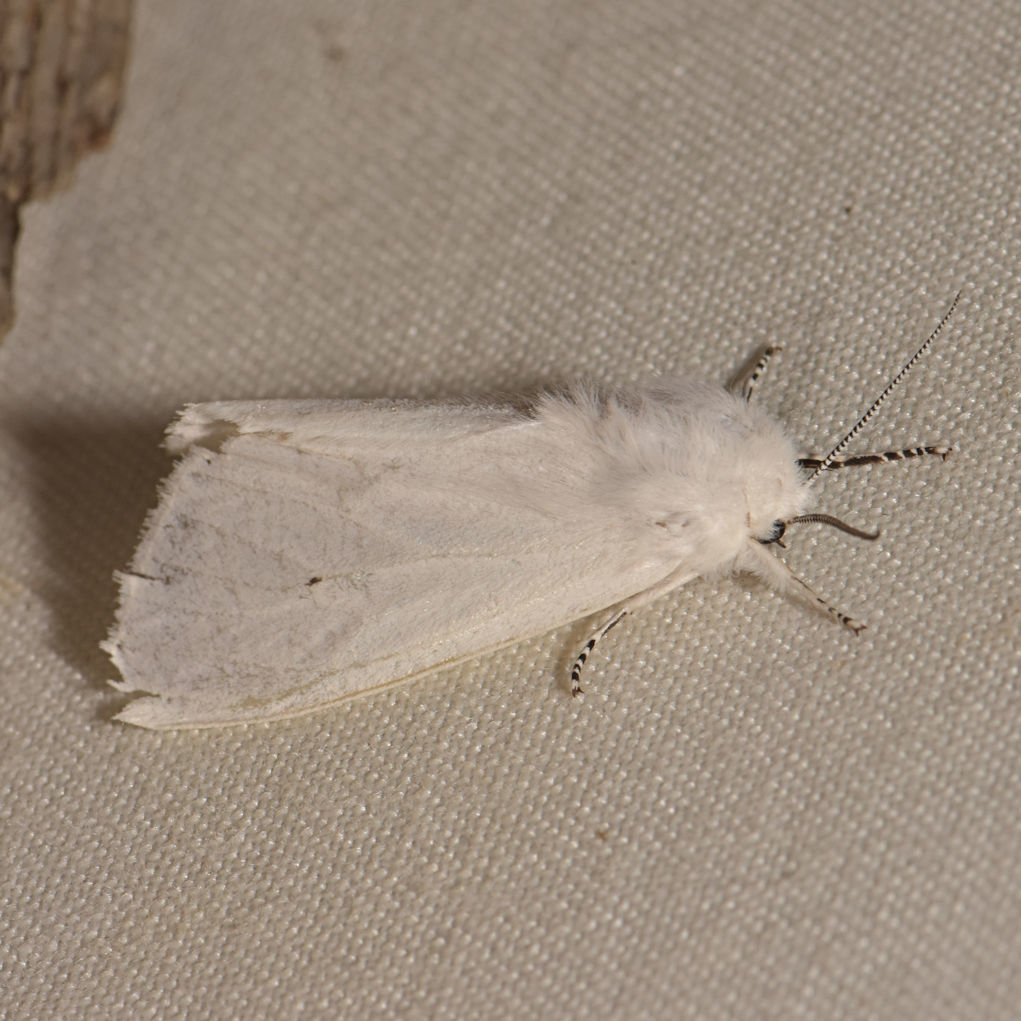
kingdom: Animalia
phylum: Arthropoda
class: Insecta
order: Lepidoptera
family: Erebidae
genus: Spilosoma
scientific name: Spilosoma virginica
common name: Virginia tiger moth
